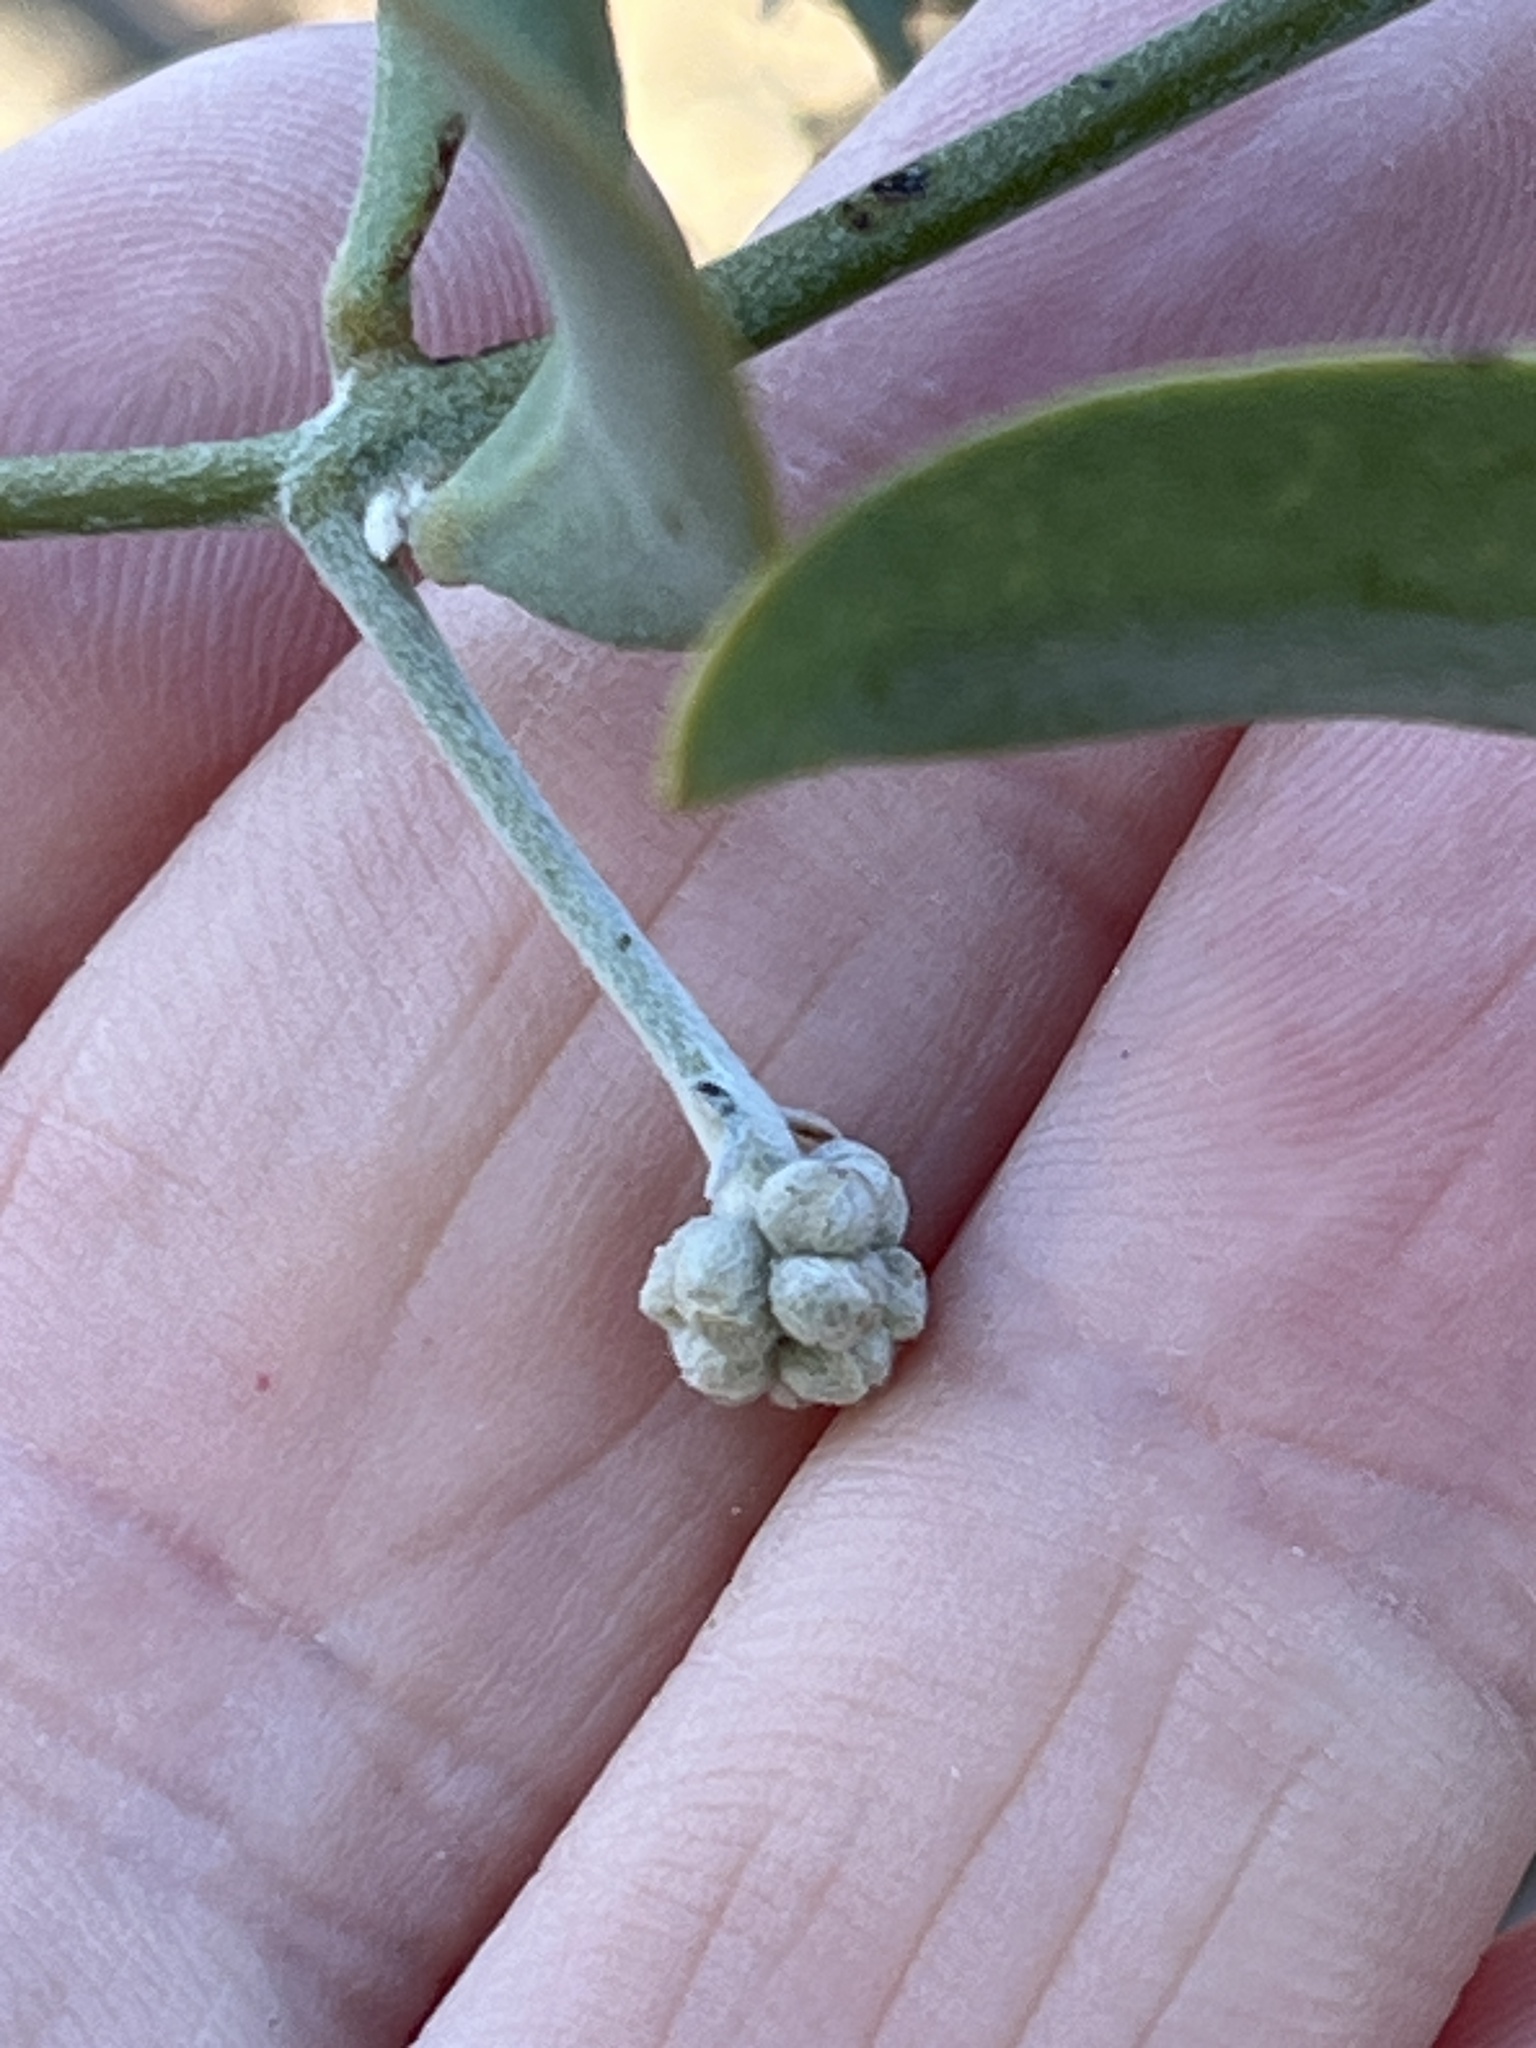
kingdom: Plantae
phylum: Tracheophyta
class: Magnoliopsida
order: Caryophyllales
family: Simmondsiaceae
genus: Simmondsia
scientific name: Simmondsia chinensis
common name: Jojoba
